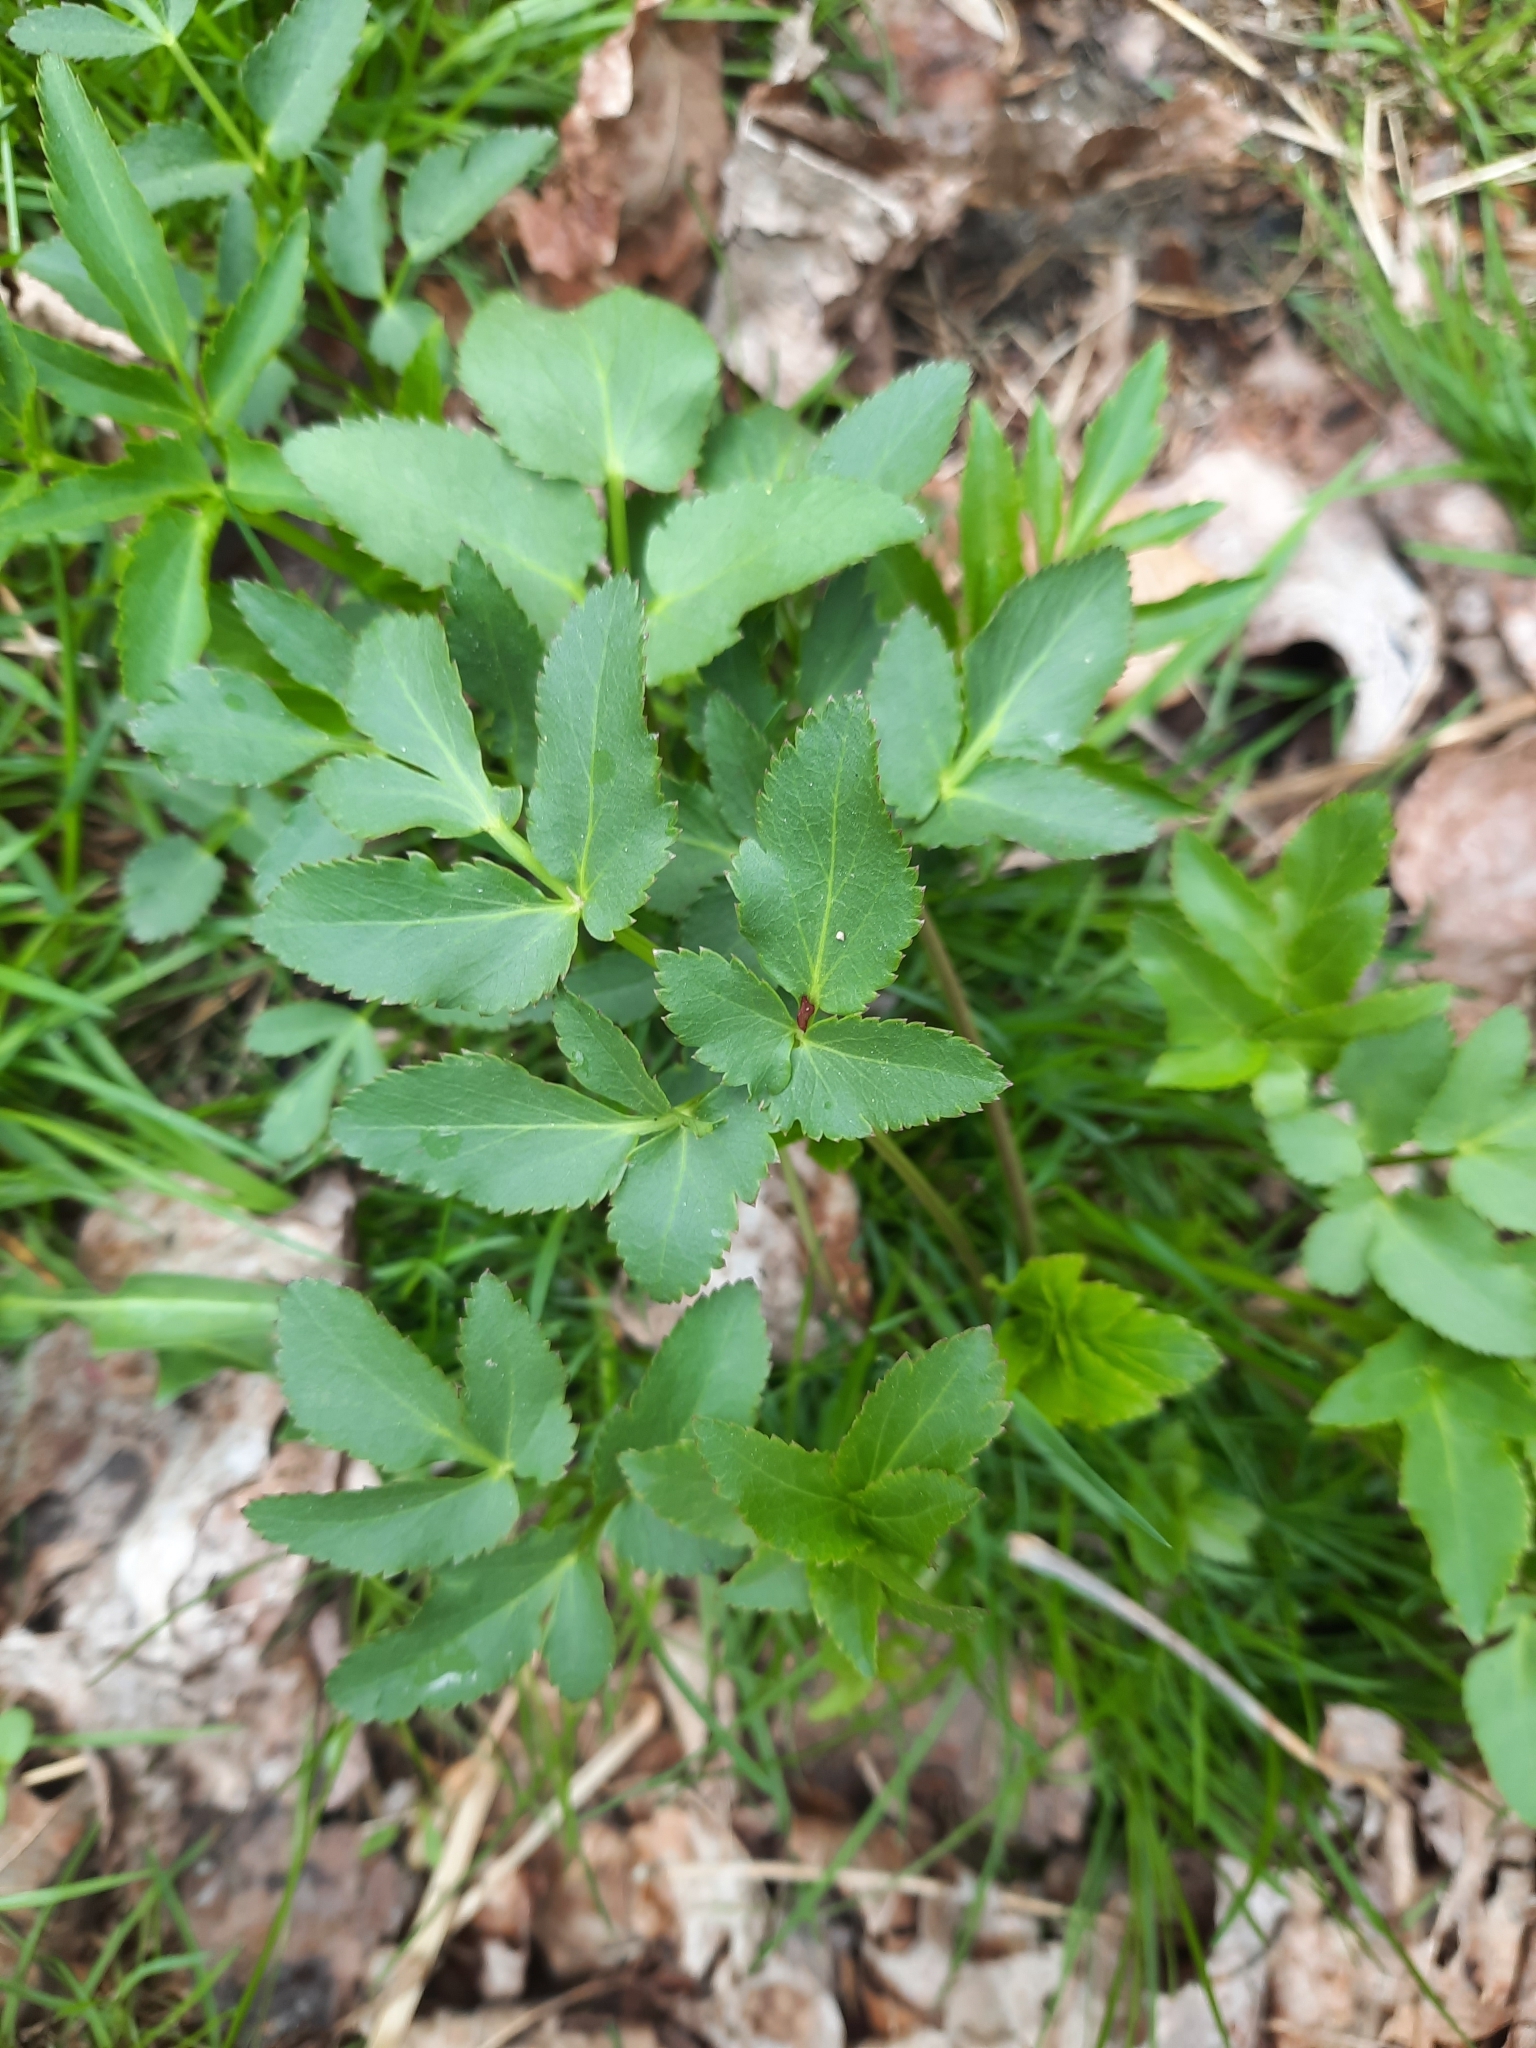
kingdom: Plantae
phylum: Tracheophyta
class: Magnoliopsida
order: Apiales
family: Apiaceae
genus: Zizia
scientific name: Zizia aurea
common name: Golden alexanders
